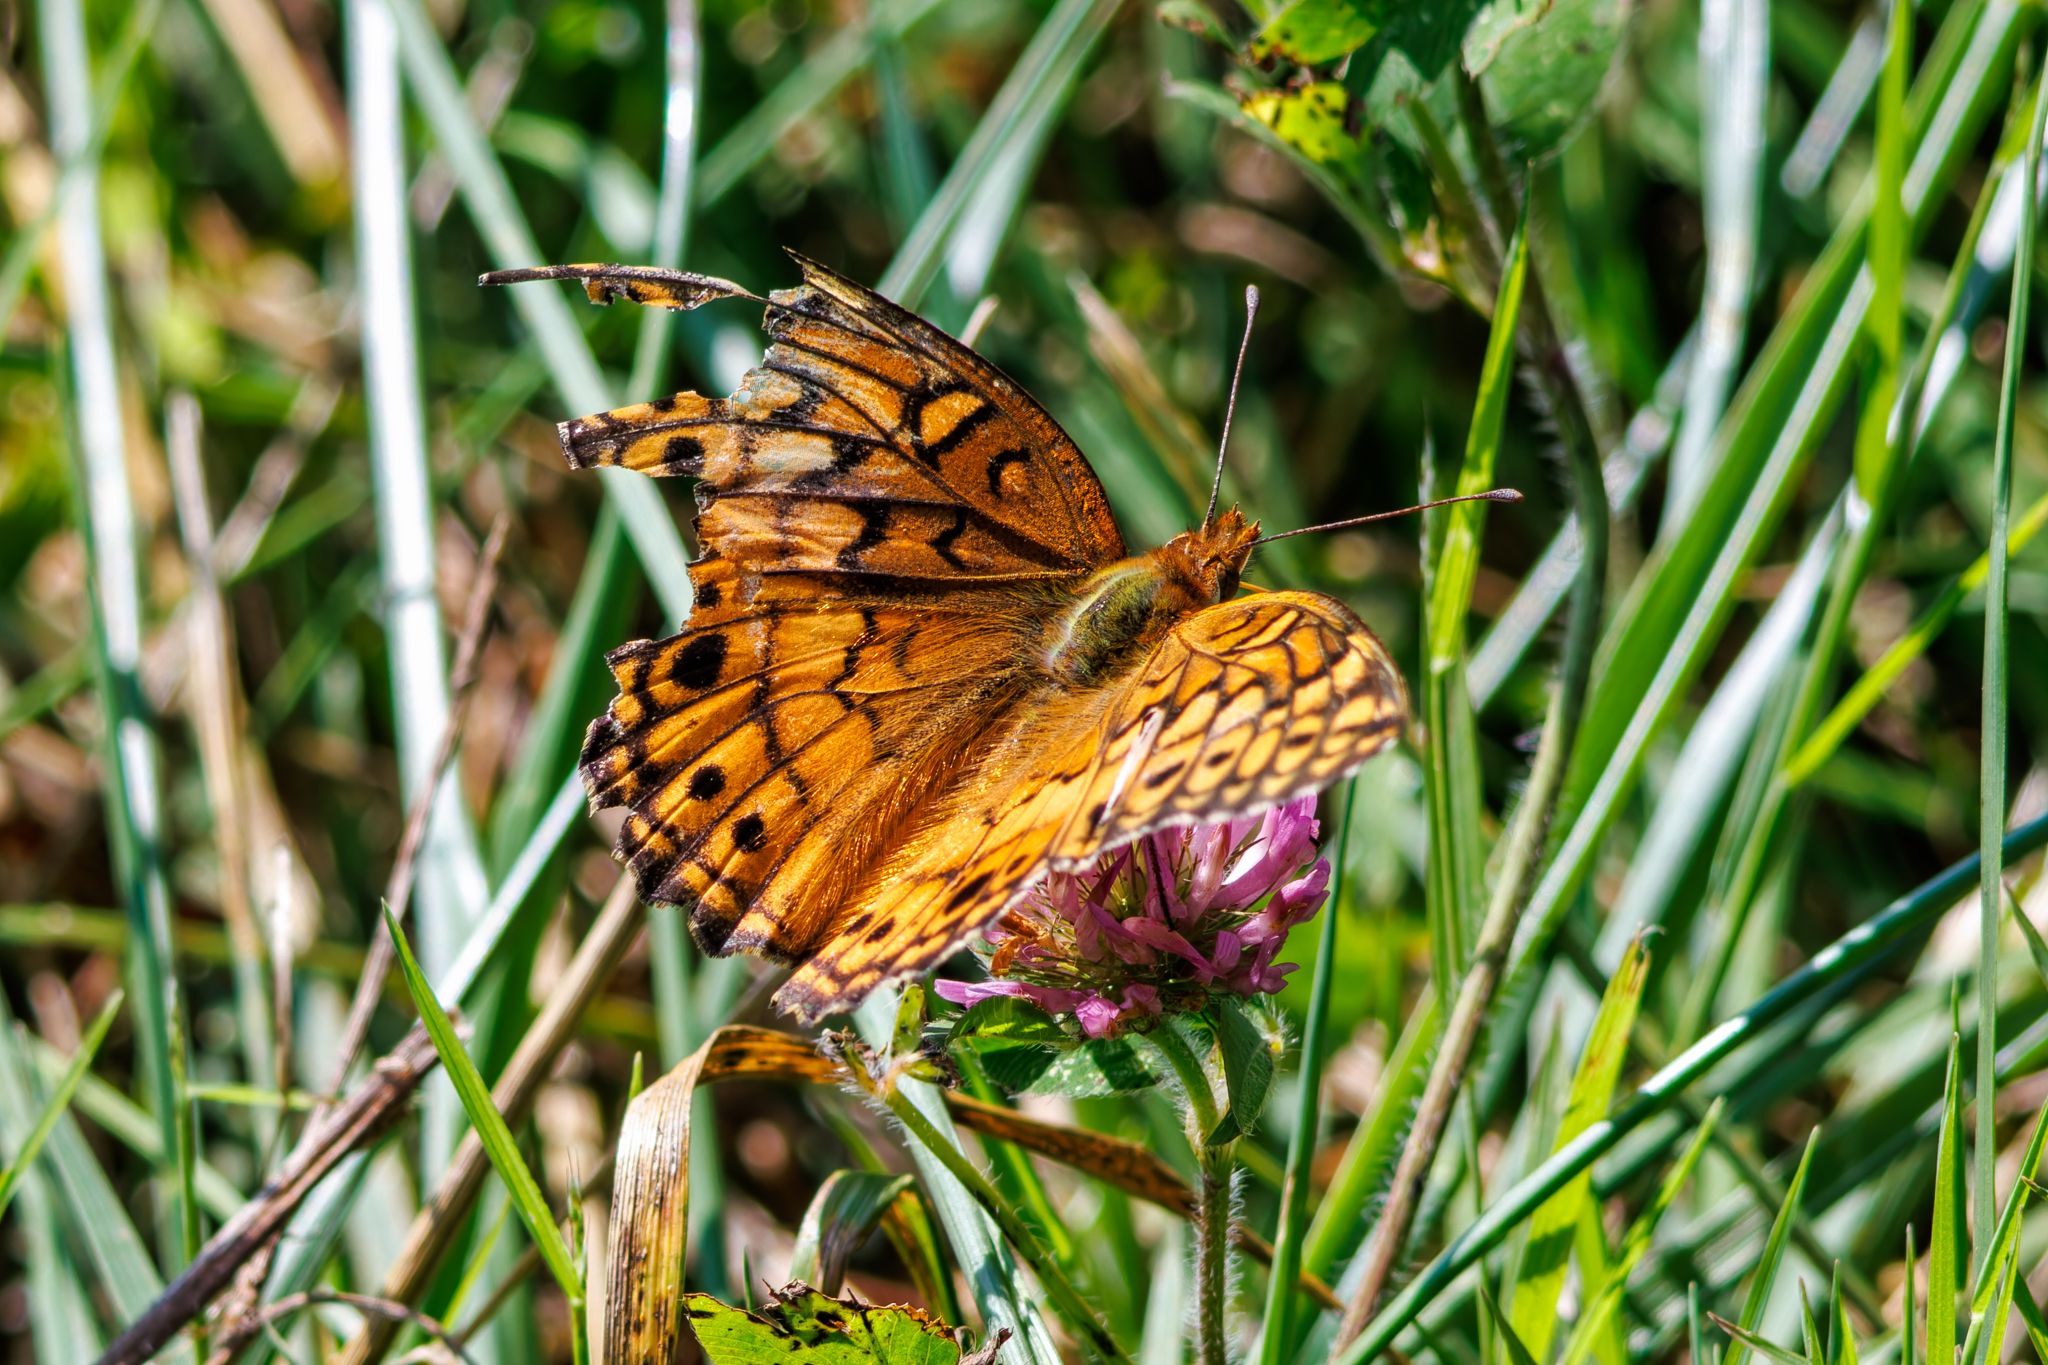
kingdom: Animalia
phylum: Arthropoda
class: Insecta
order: Lepidoptera
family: Nymphalidae
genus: Euptoieta
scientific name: Euptoieta claudia
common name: Variegated fritillary
